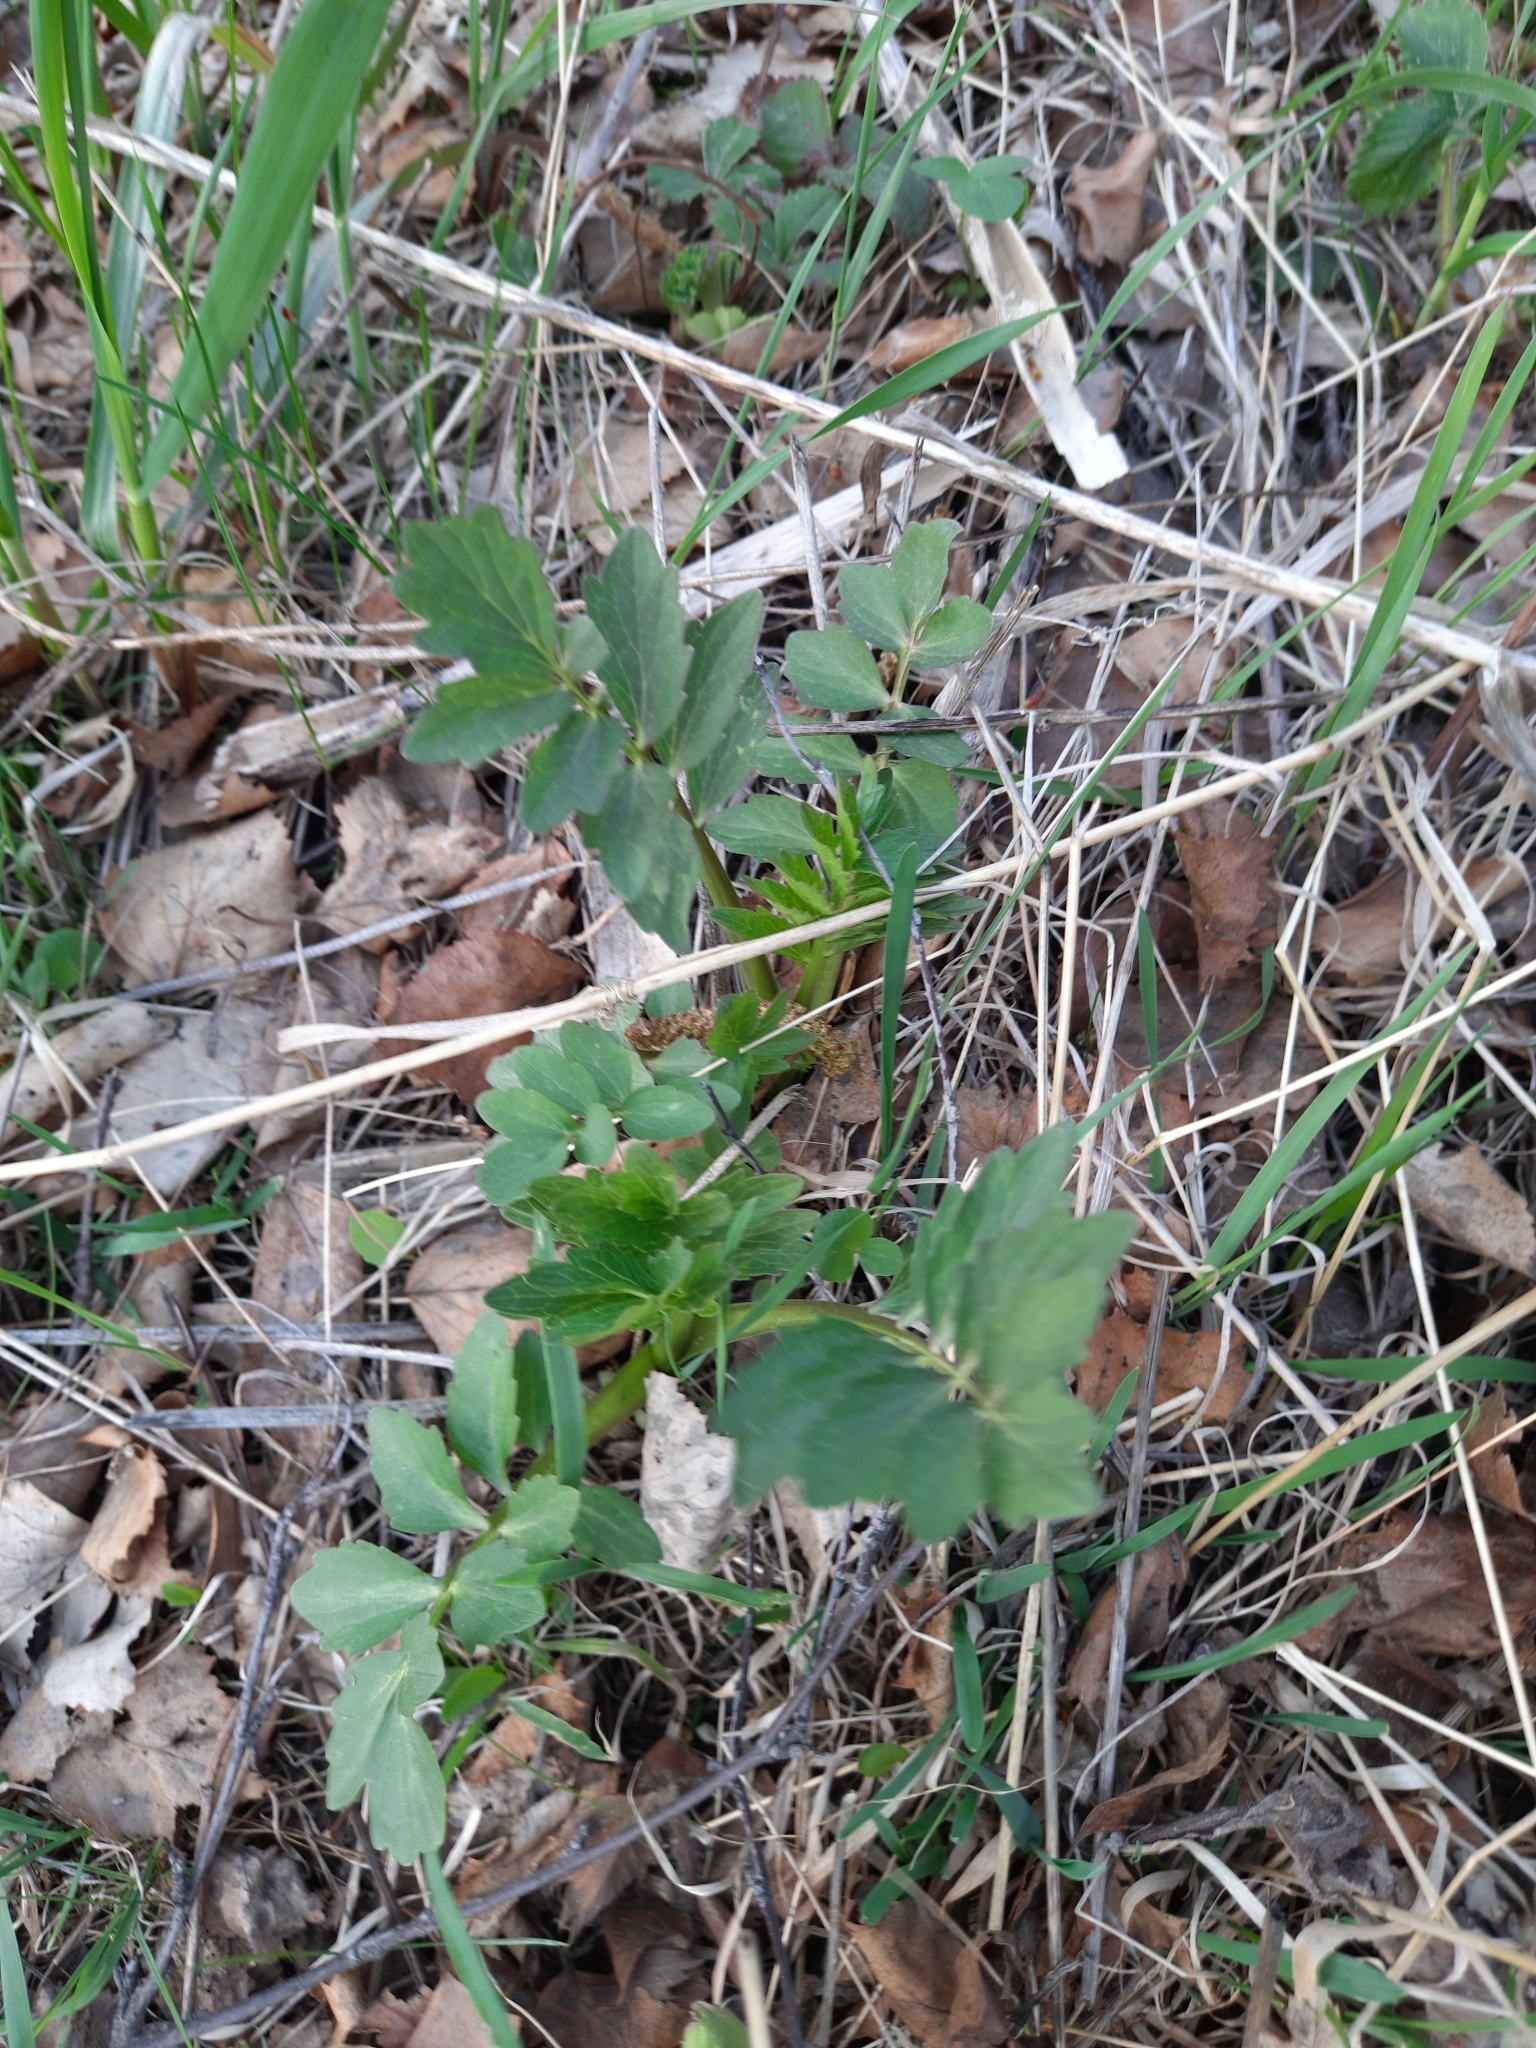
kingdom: Plantae
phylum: Tracheophyta
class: Magnoliopsida
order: Dipsacales
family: Caprifoliaceae
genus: Valeriana
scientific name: Valeriana wolgensis
